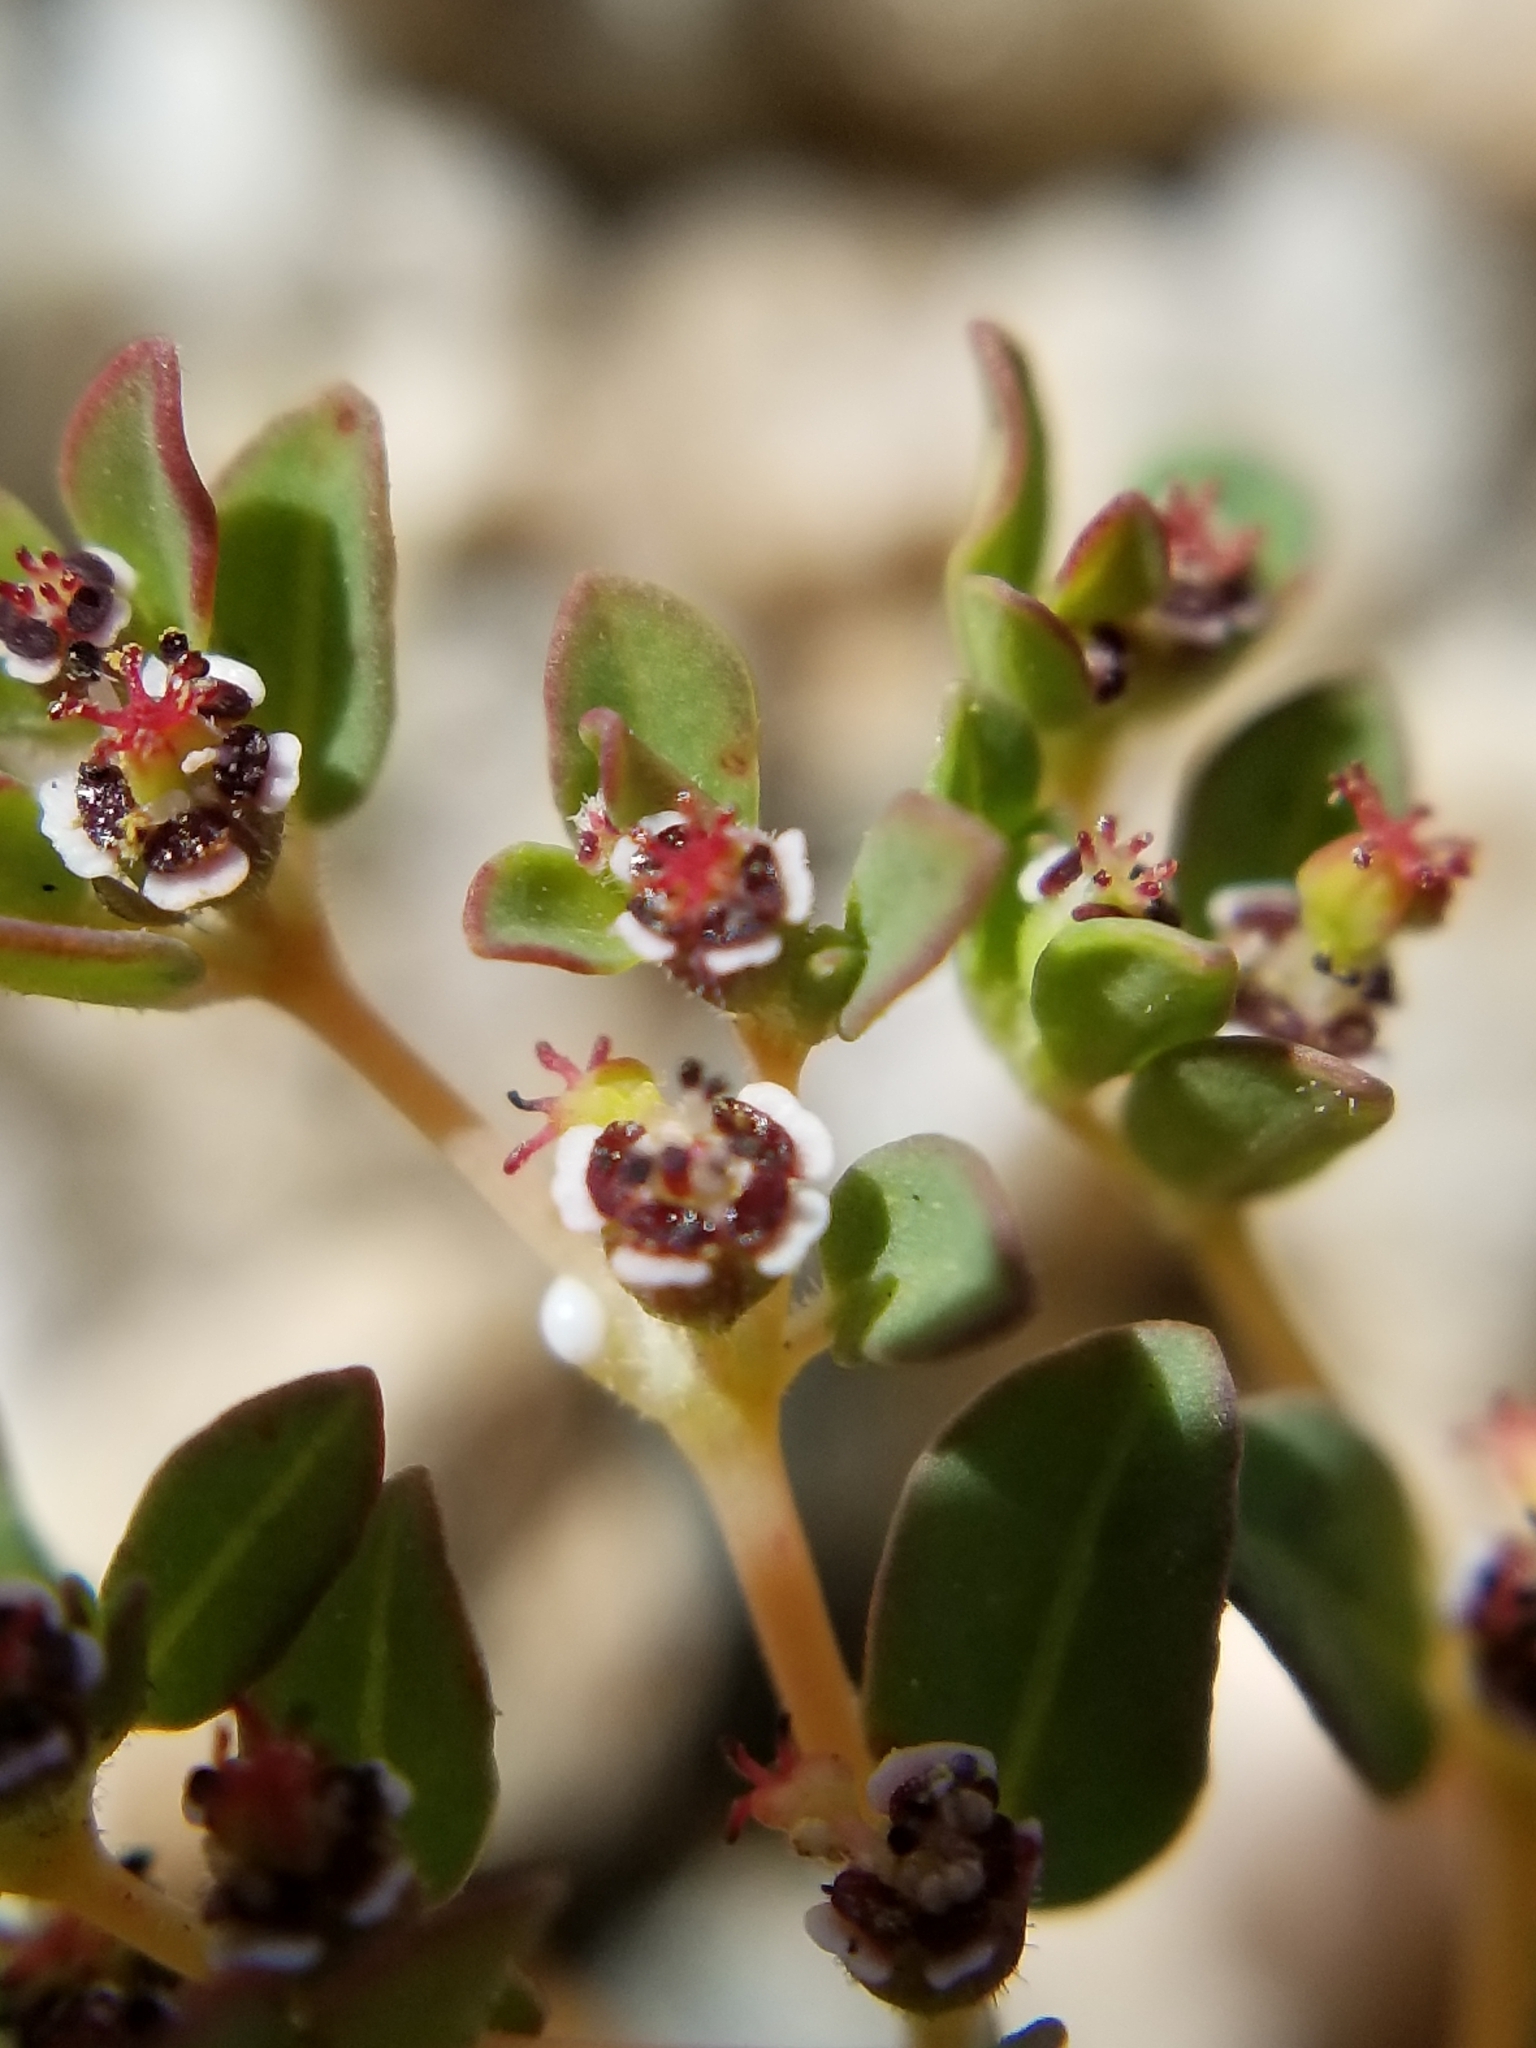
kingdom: Plantae
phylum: Tracheophyta
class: Magnoliopsida
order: Malpighiales
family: Euphorbiaceae
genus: Euphorbia
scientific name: Euphorbia polycarpa
